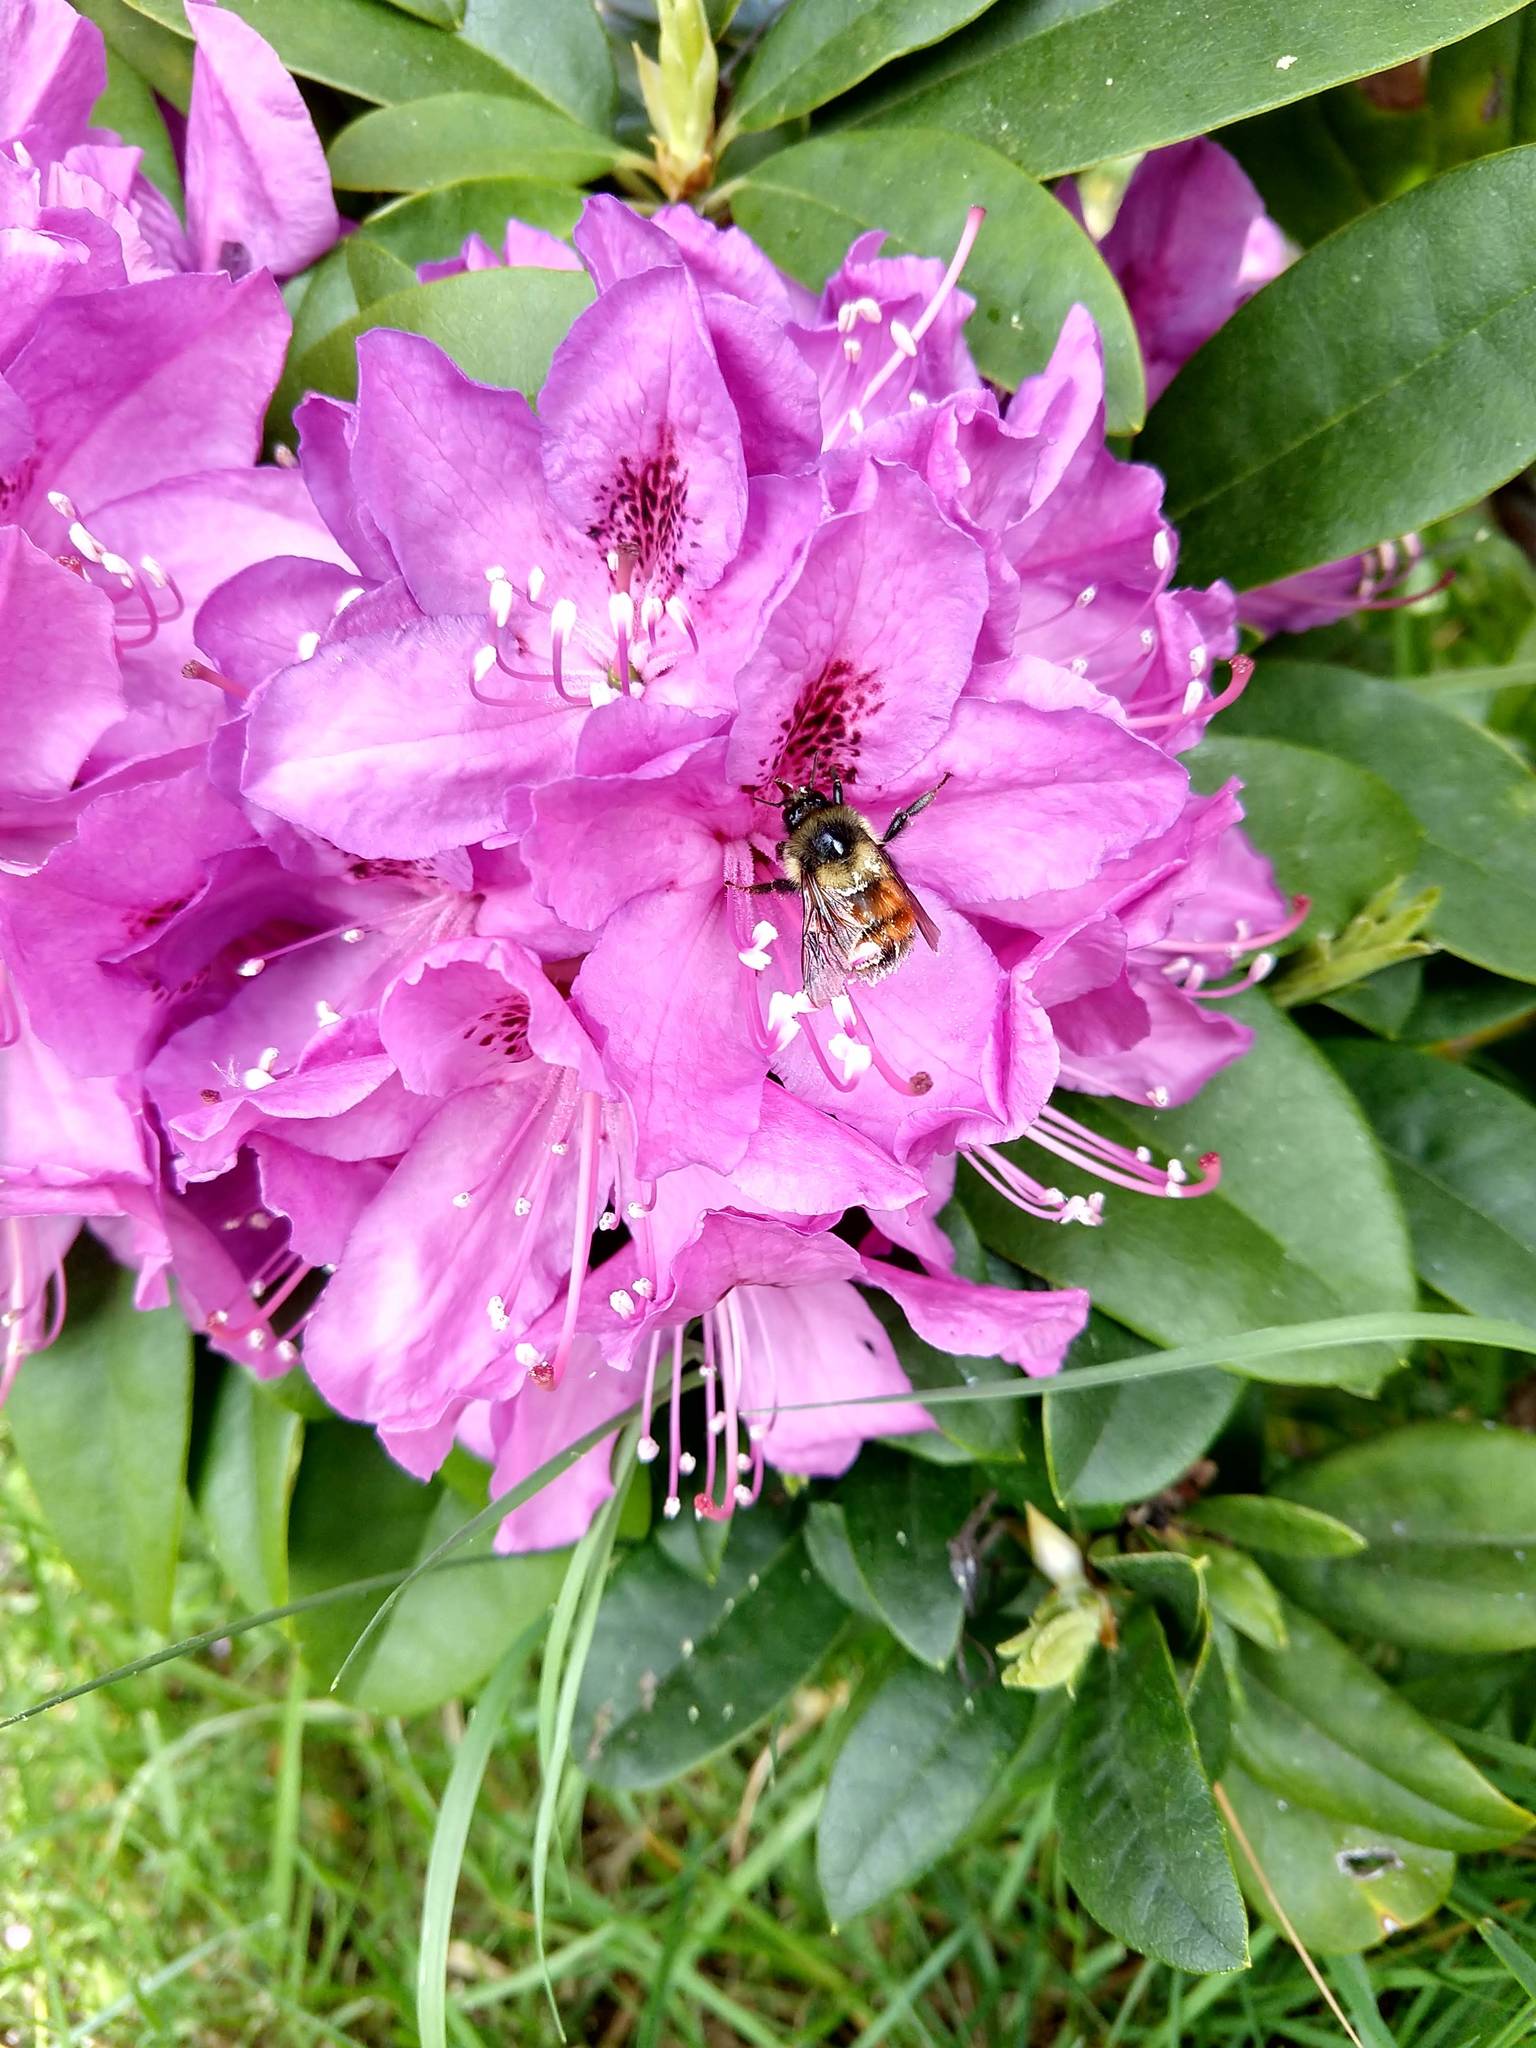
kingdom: Animalia
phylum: Arthropoda
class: Insecta
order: Hymenoptera
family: Apidae
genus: Bombus
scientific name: Bombus melanopygus
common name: Black tail bumble bee
